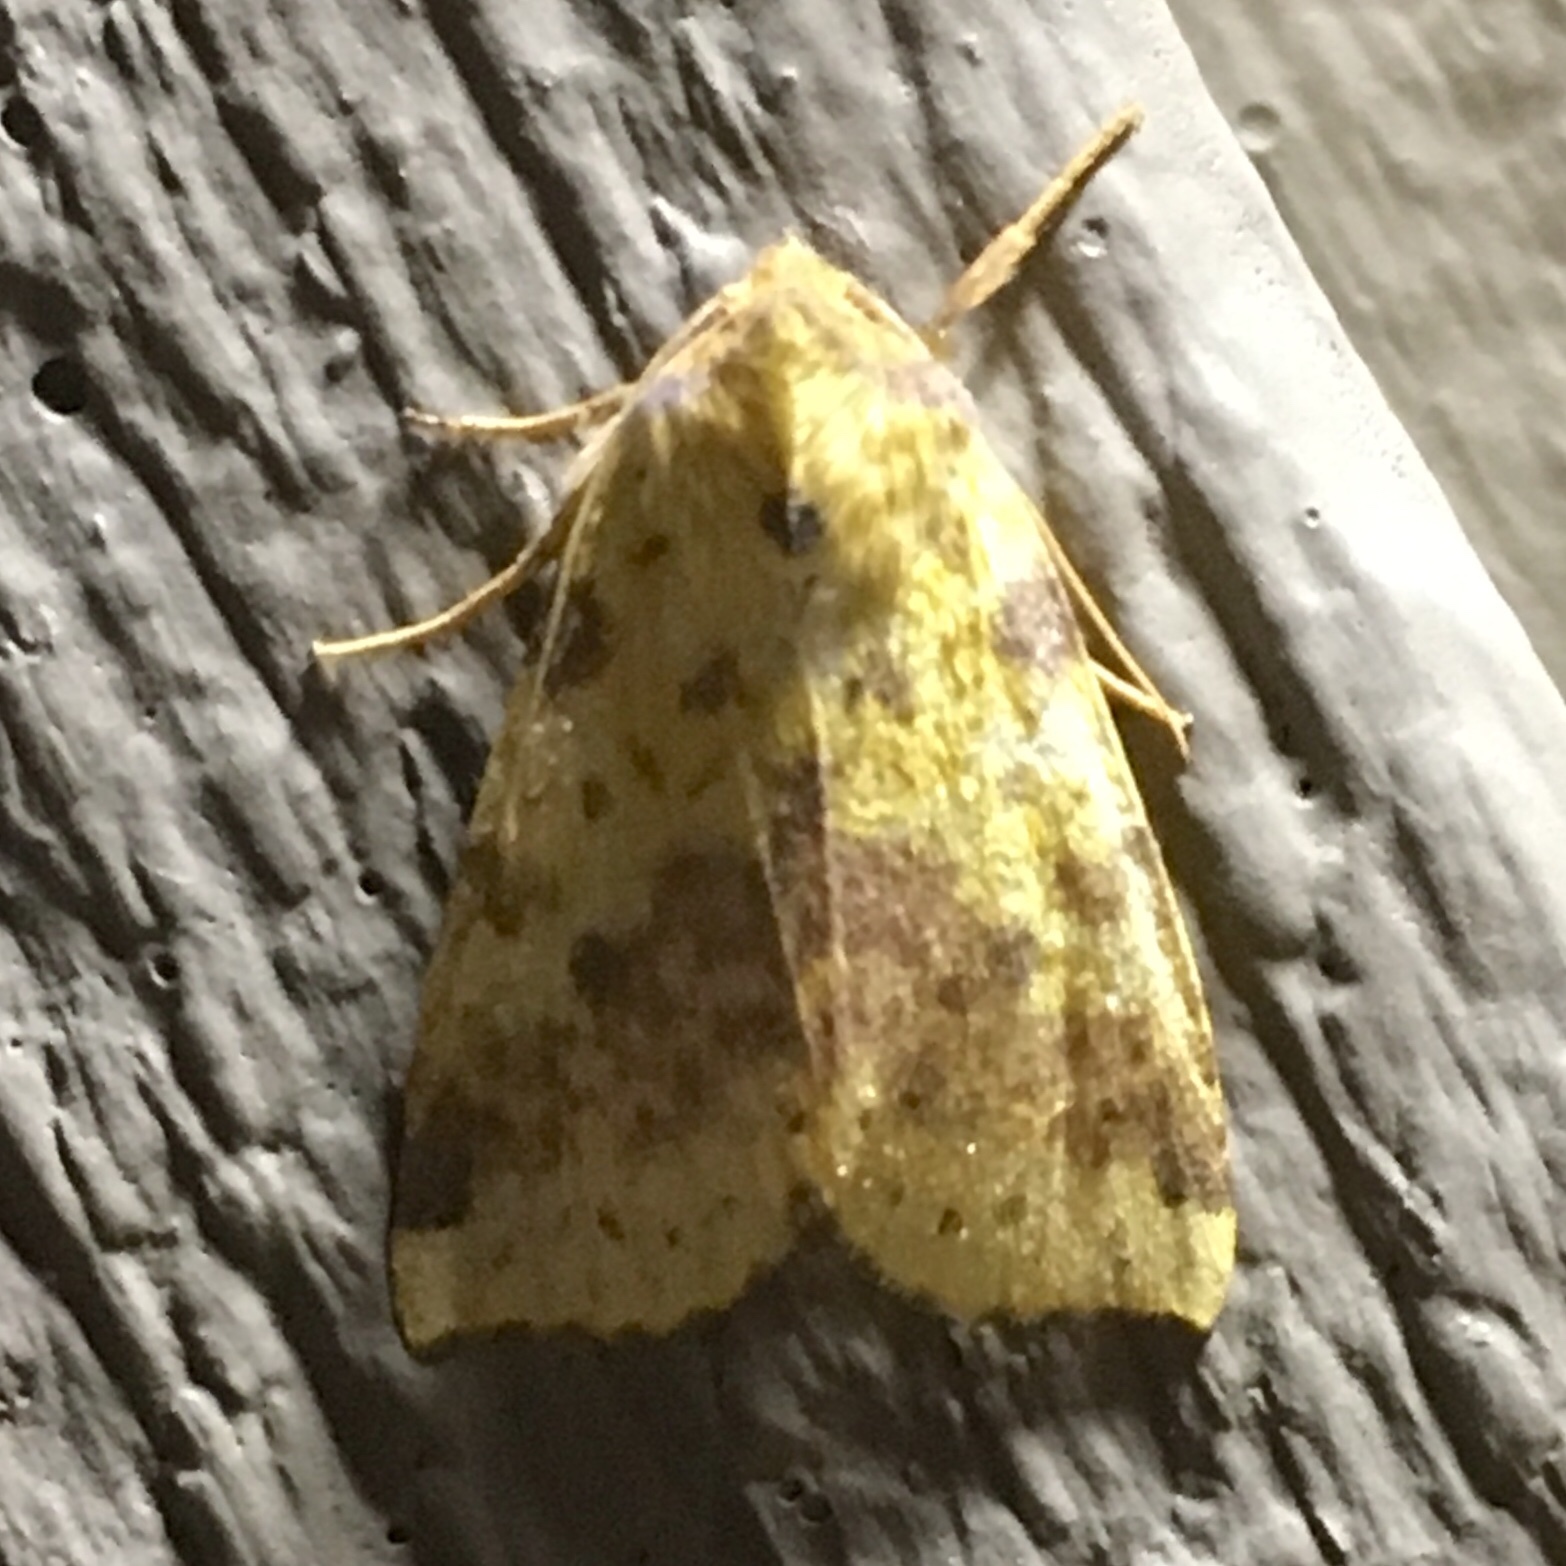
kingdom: Animalia
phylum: Arthropoda
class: Insecta
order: Lepidoptera
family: Noctuidae
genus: Xanthia
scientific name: Xanthia tatago
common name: Pink-banded sallow
